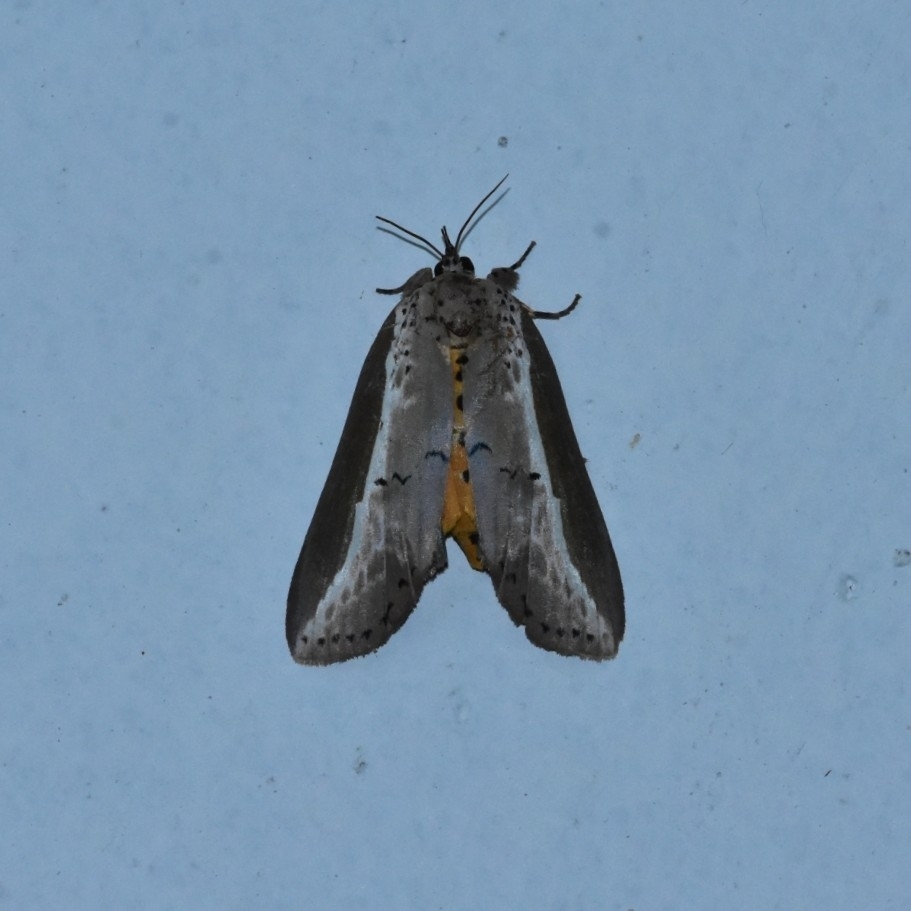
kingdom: Animalia
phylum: Arthropoda
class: Insecta
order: Lepidoptera
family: Nolidae
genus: Eligma
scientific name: Eligma narcissus
